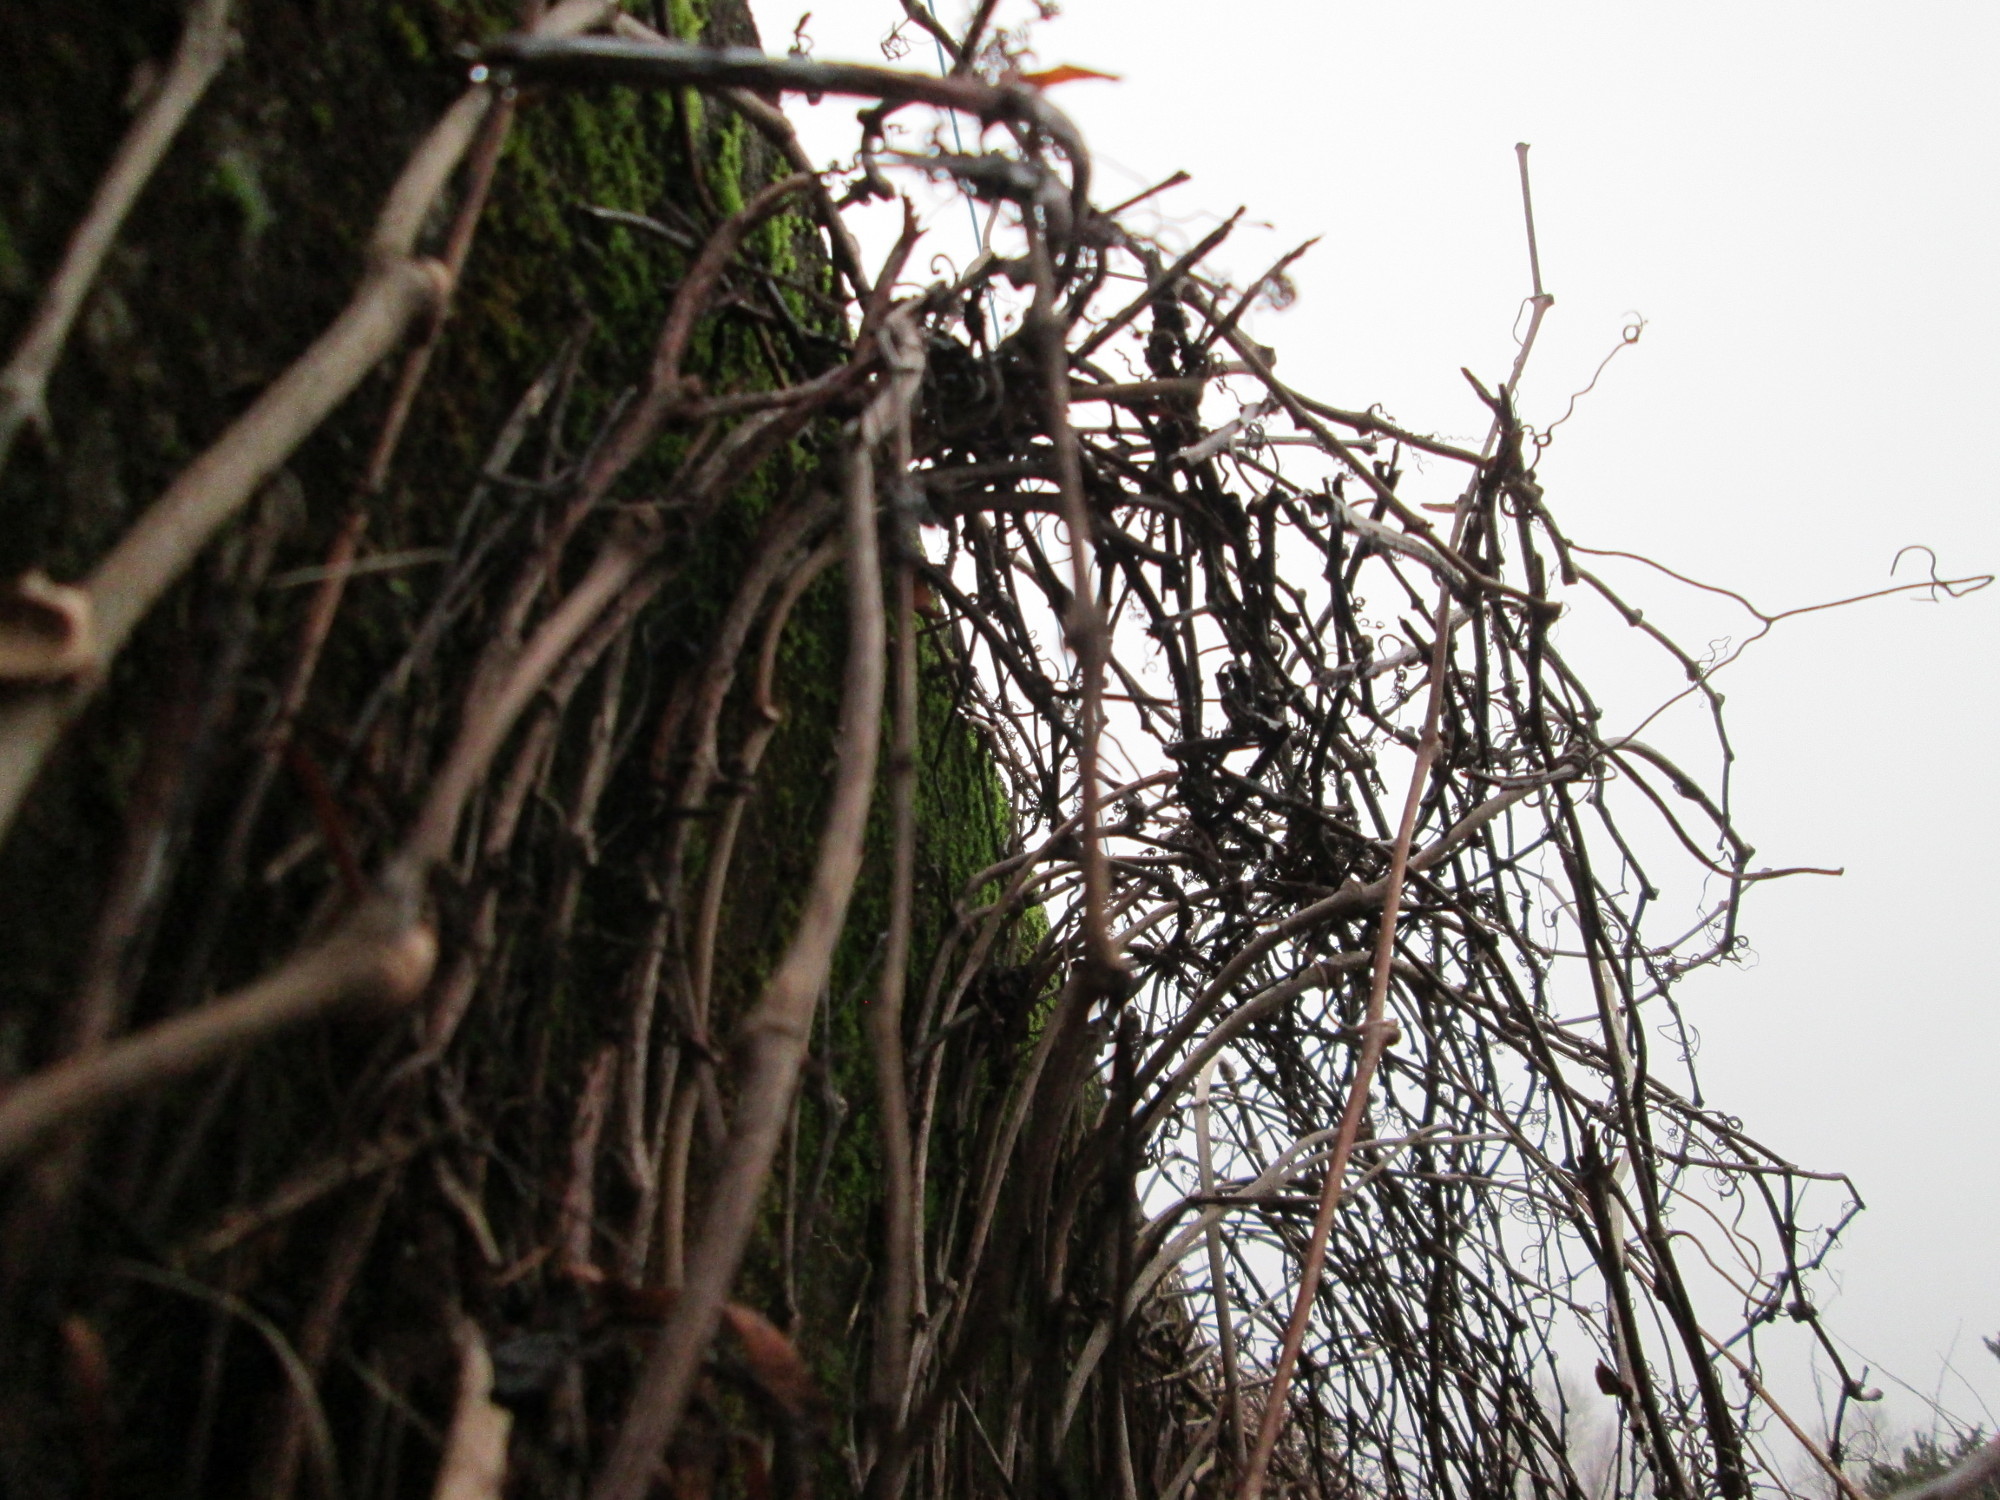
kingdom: Plantae
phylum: Tracheophyta
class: Magnoliopsida
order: Vitales
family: Vitaceae
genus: Parthenocissus
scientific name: Parthenocissus inserta
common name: False virginia-creeper
